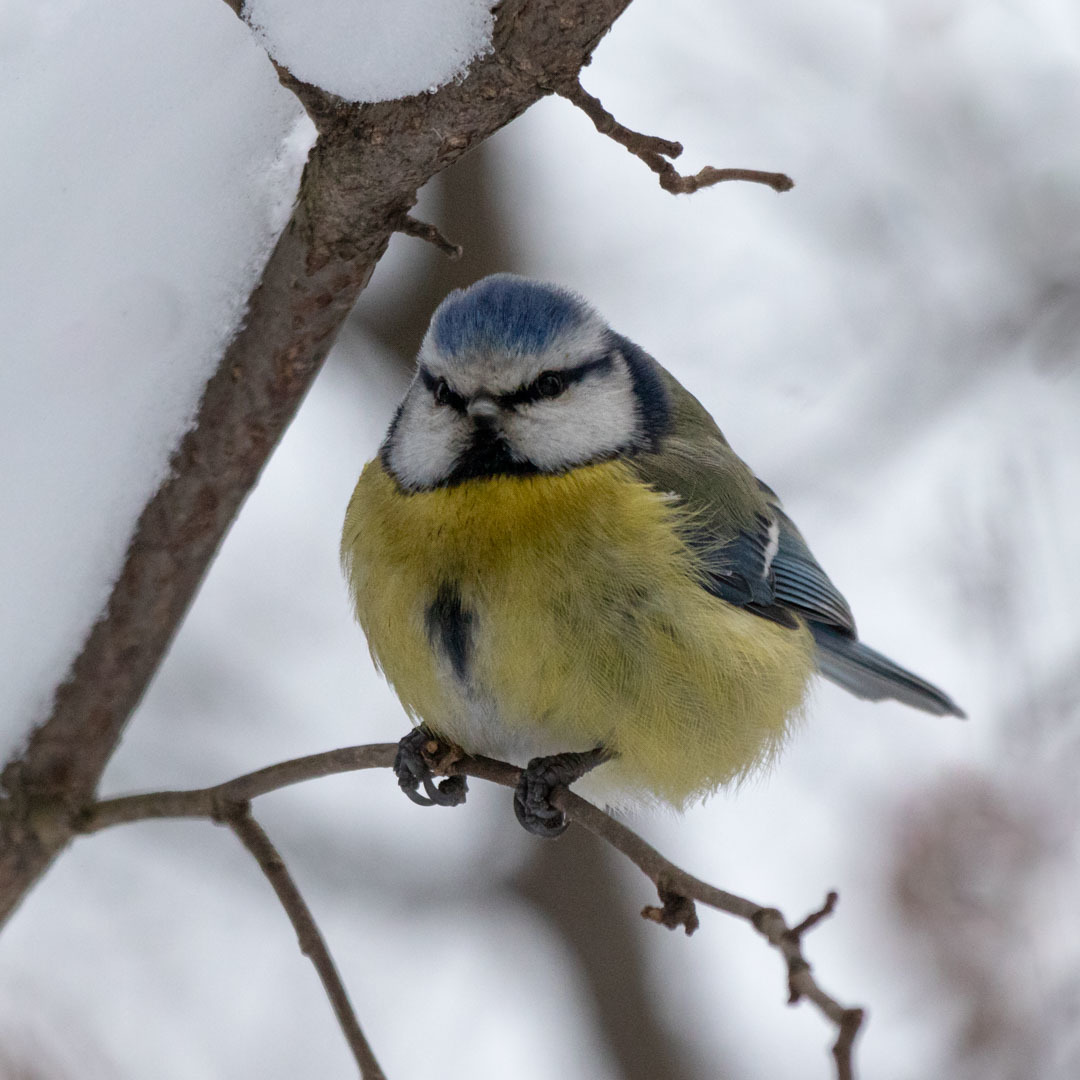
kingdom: Animalia
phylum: Chordata
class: Aves
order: Passeriformes
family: Paridae
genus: Cyanistes
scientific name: Cyanistes caeruleus
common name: Eurasian blue tit
